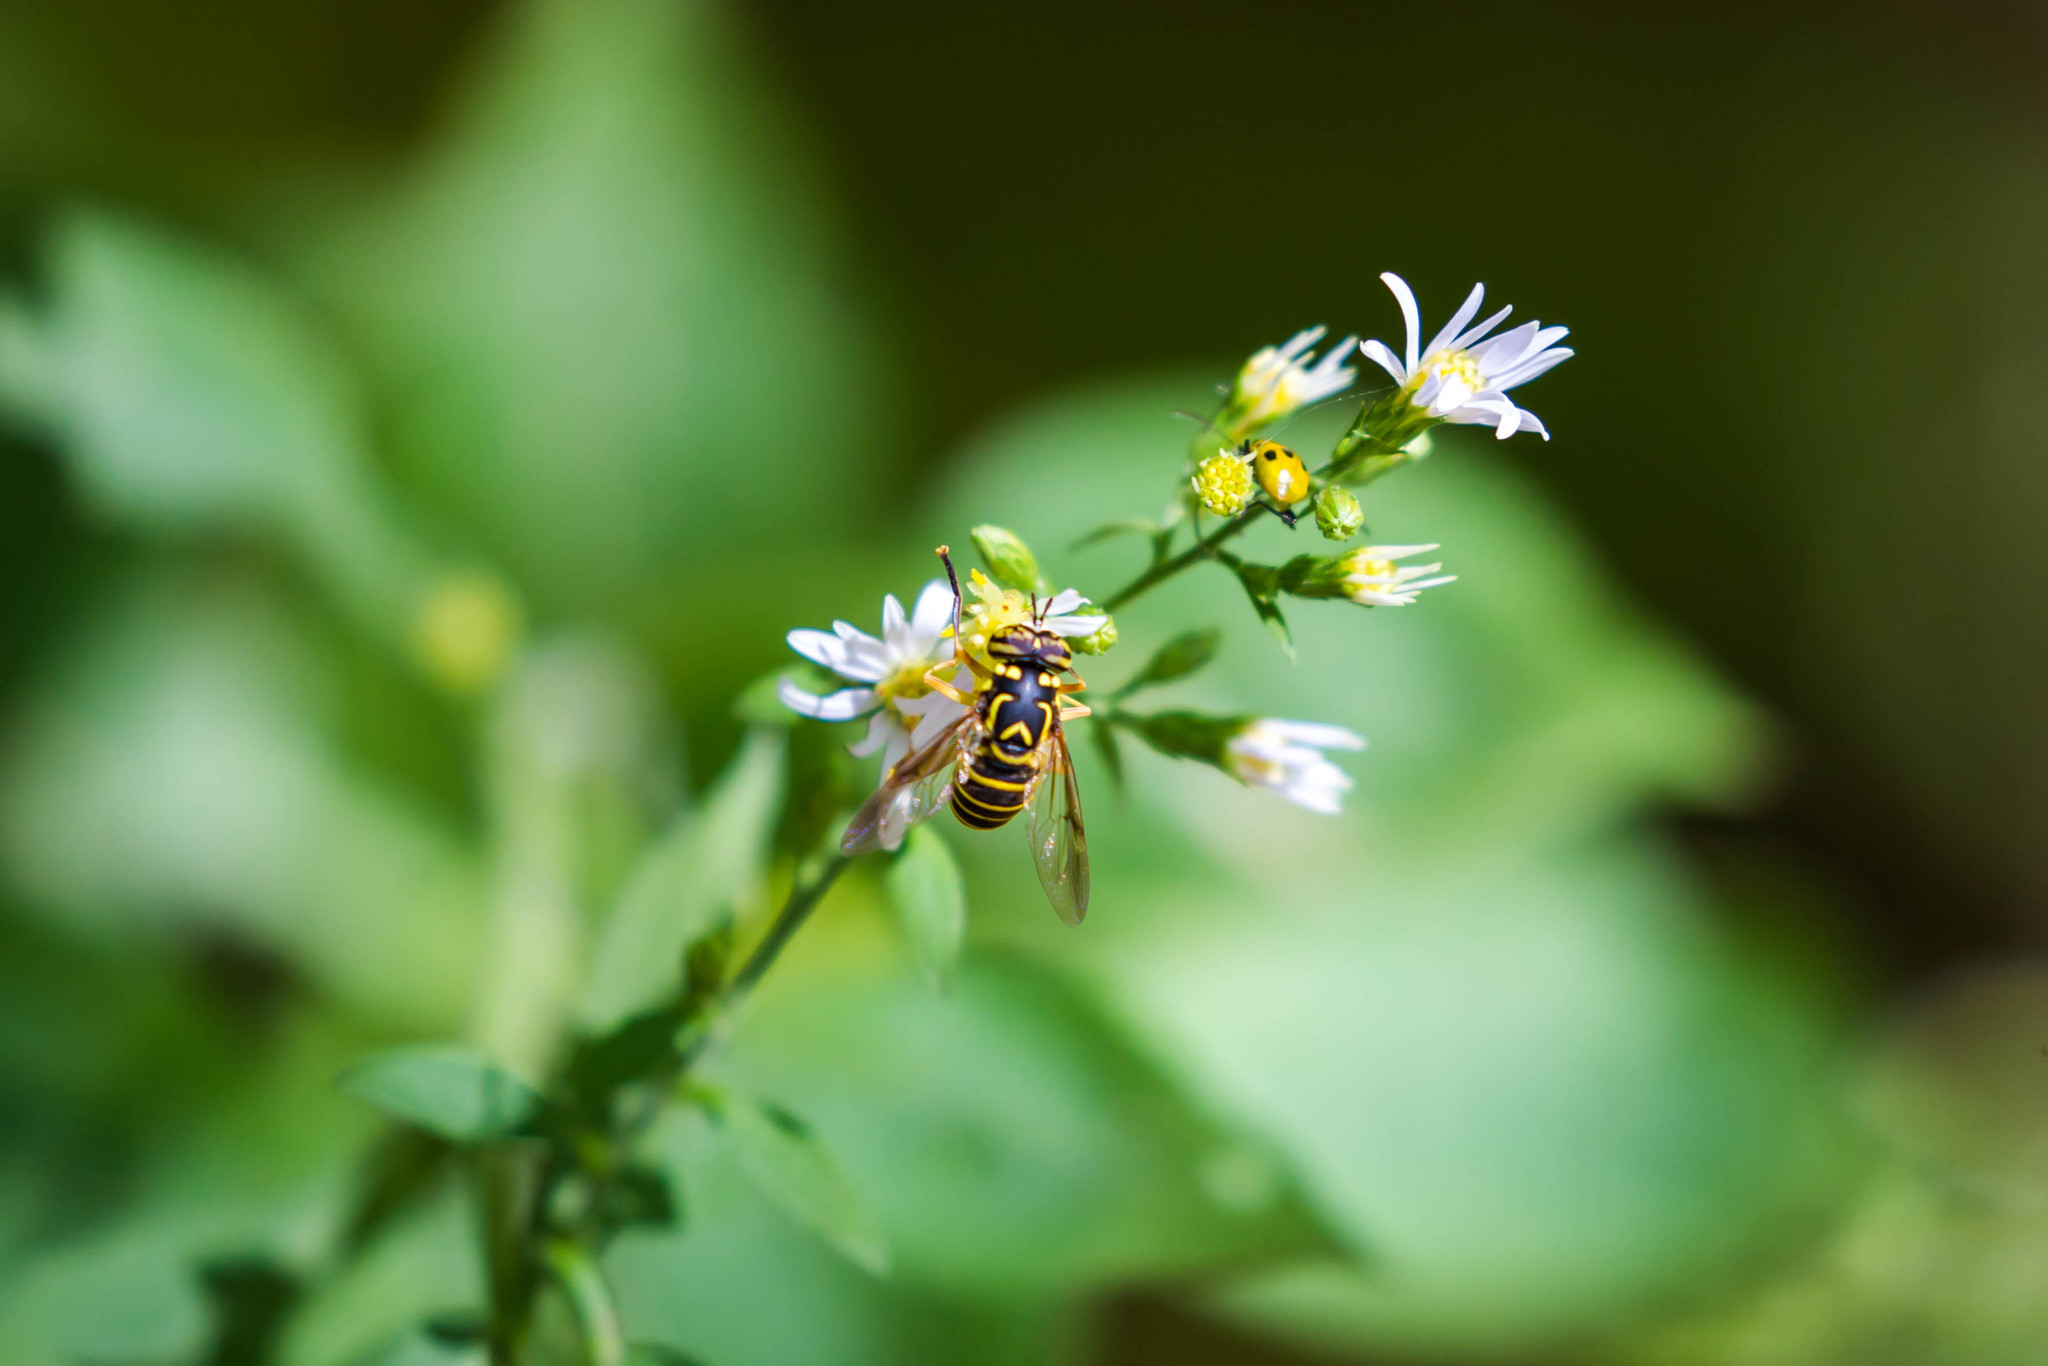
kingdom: Animalia
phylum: Arthropoda
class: Insecta
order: Diptera
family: Syrphidae
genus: Spilomyia
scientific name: Spilomyia longicornis
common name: Eastern hornet fly
